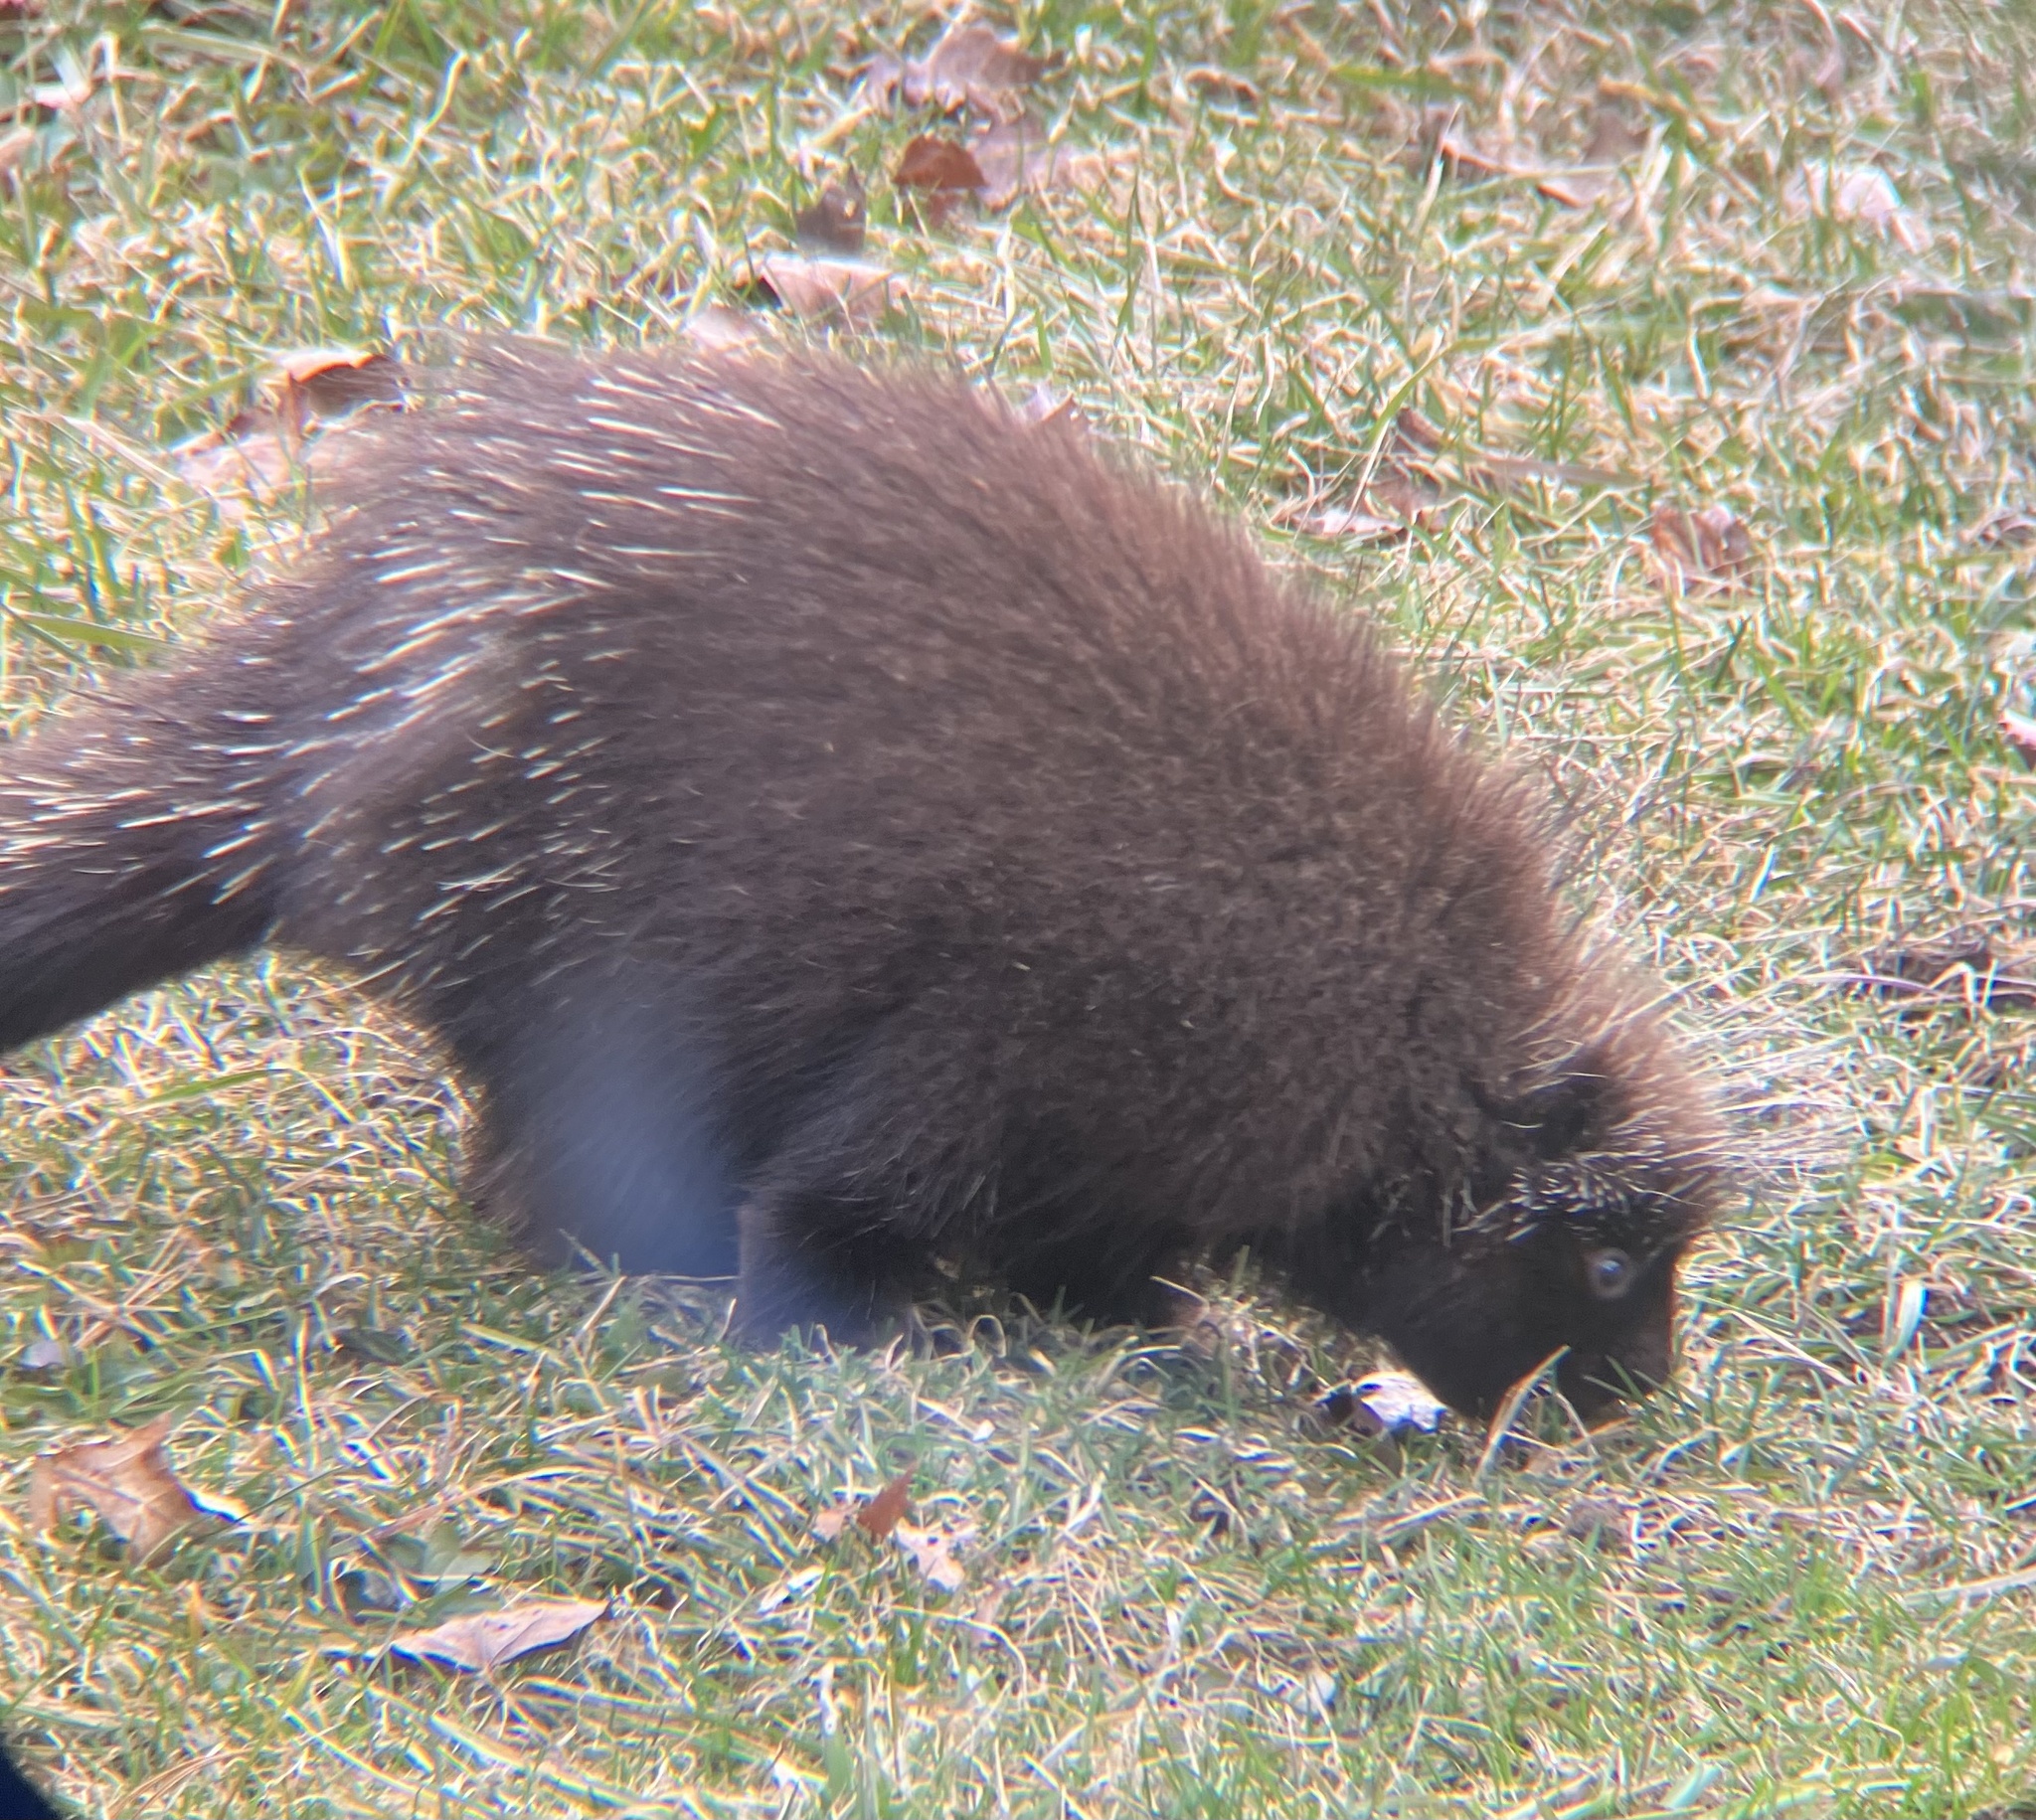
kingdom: Animalia
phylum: Chordata
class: Mammalia
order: Rodentia
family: Erethizontidae
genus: Erethizon
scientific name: Erethizon dorsatus
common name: North american porcupine
